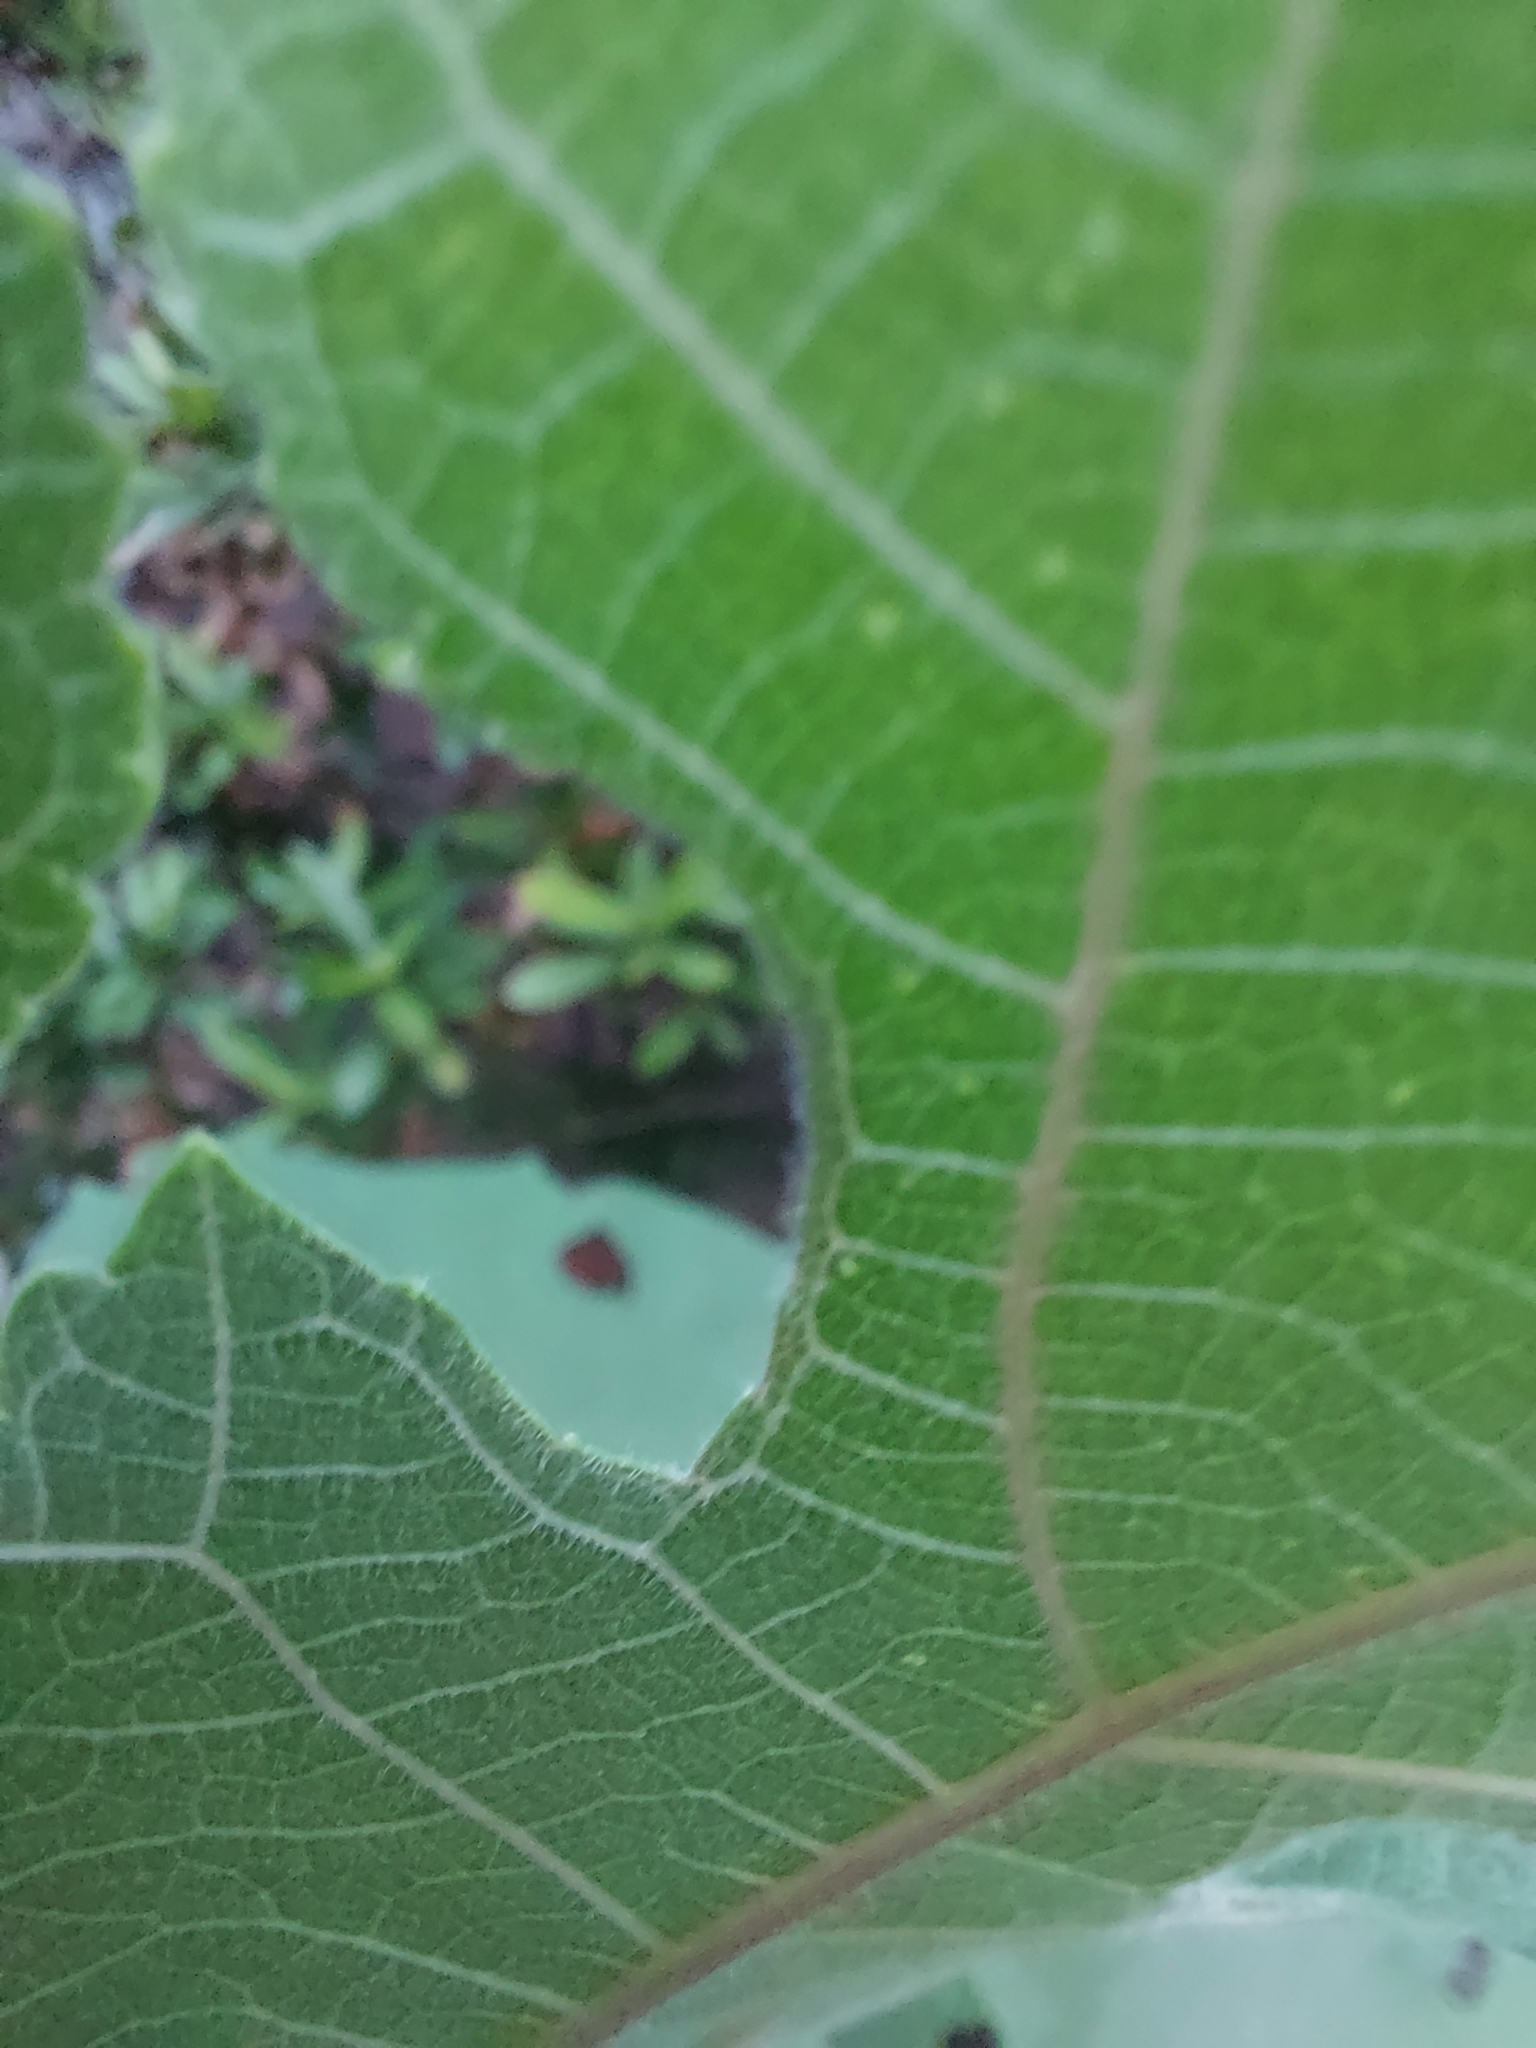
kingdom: Plantae
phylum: Tracheophyta
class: Magnoliopsida
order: Rosales
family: Moraceae
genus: Broussonetia
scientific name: Broussonetia papyrifera
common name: Paper mulberry
